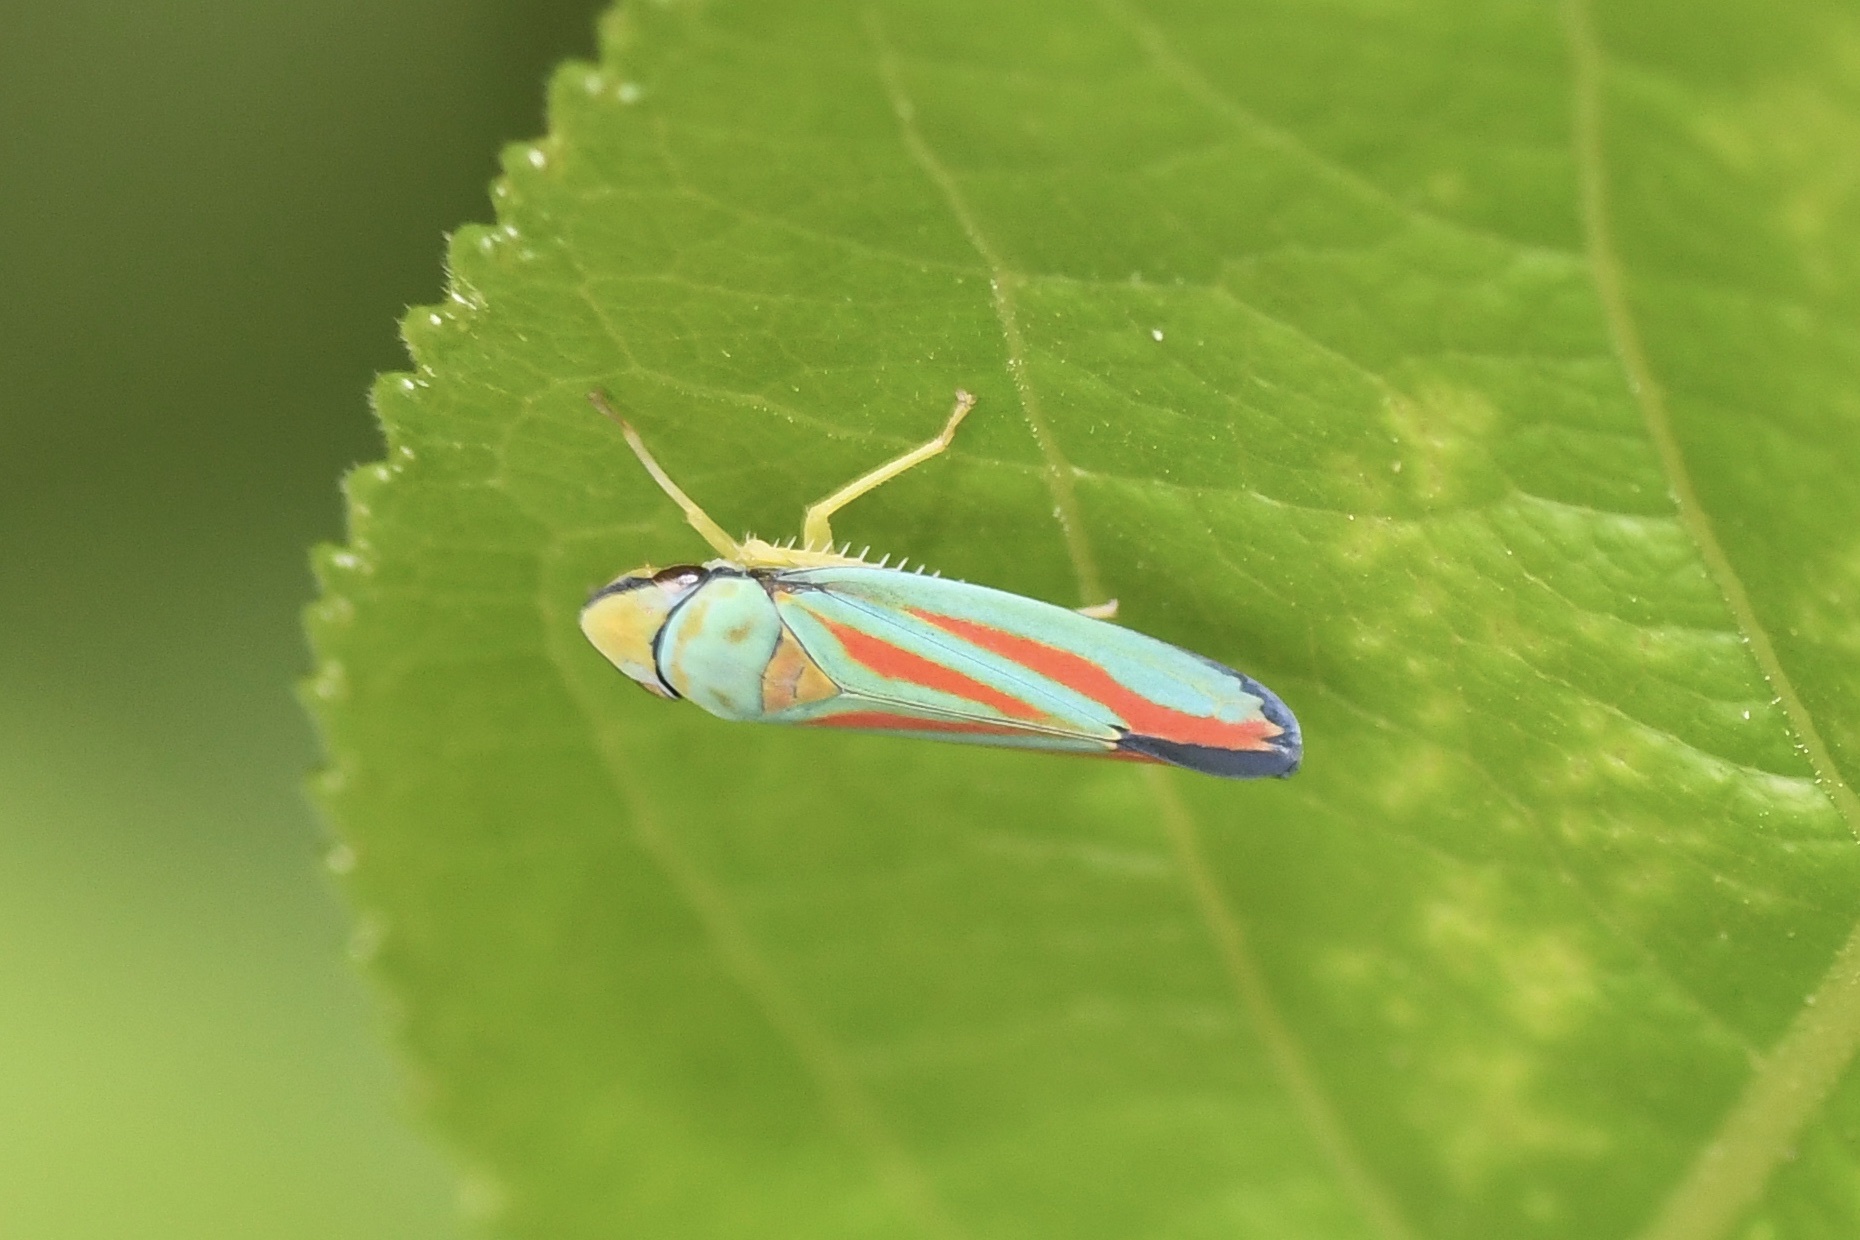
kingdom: Animalia
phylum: Arthropoda
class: Insecta
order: Hemiptera
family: Cicadellidae
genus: Graphocephala
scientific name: Graphocephala coccinea
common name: Candy-striped leafhopper
